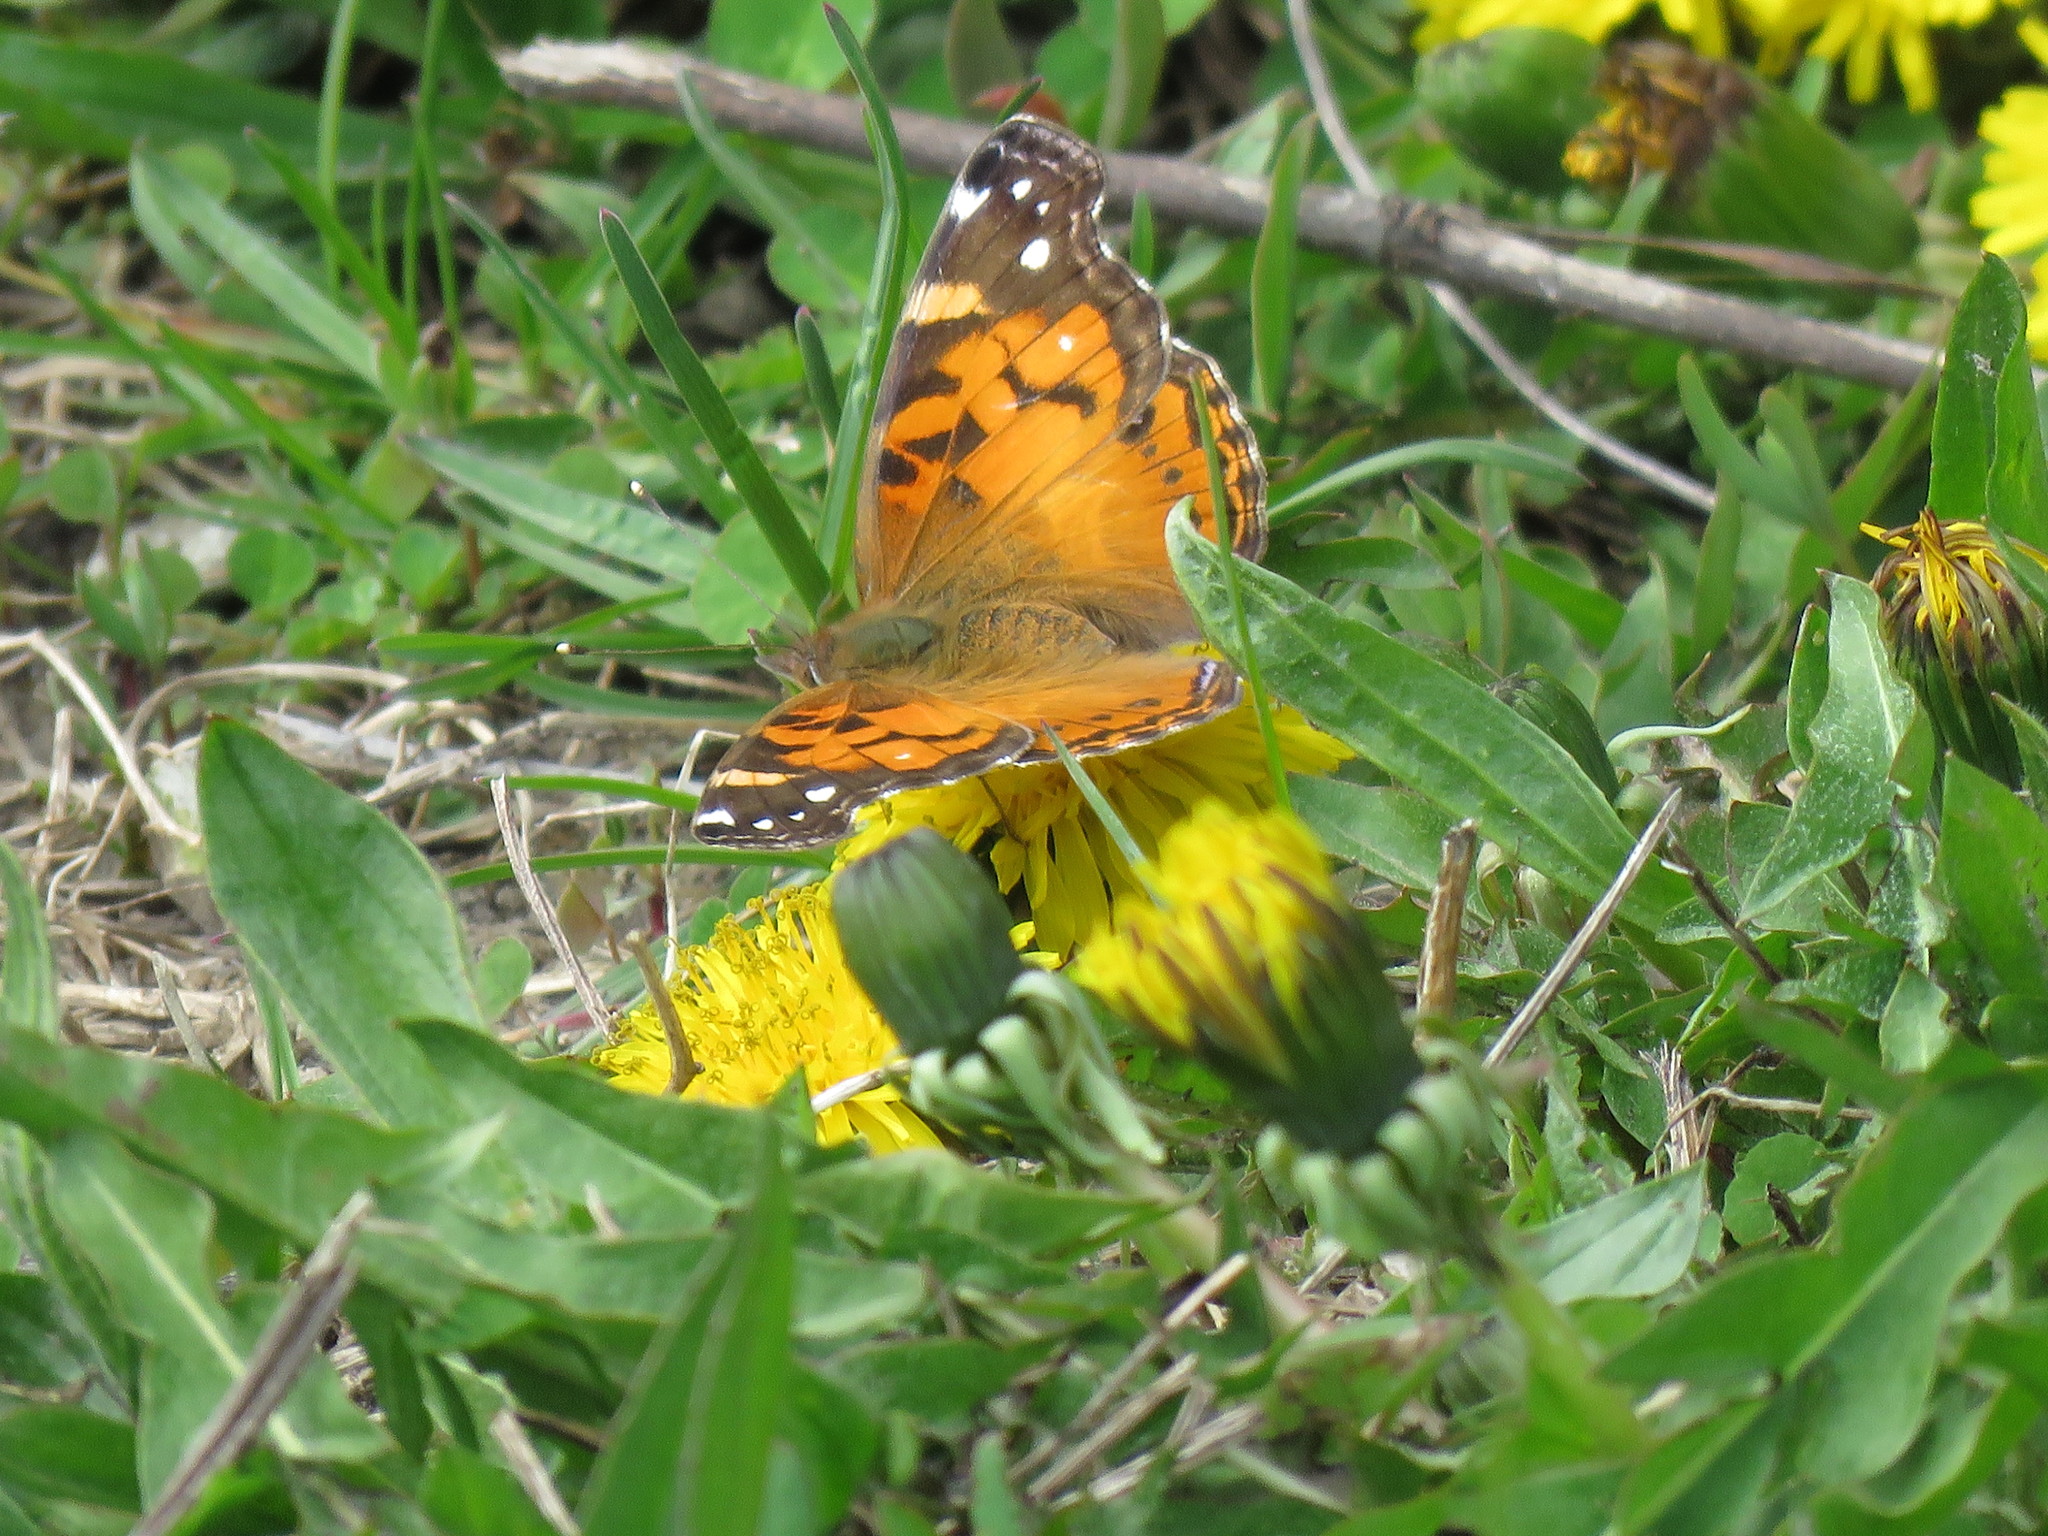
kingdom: Animalia
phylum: Arthropoda
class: Insecta
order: Lepidoptera
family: Nymphalidae
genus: Vanessa
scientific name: Vanessa virginiensis
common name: American lady
